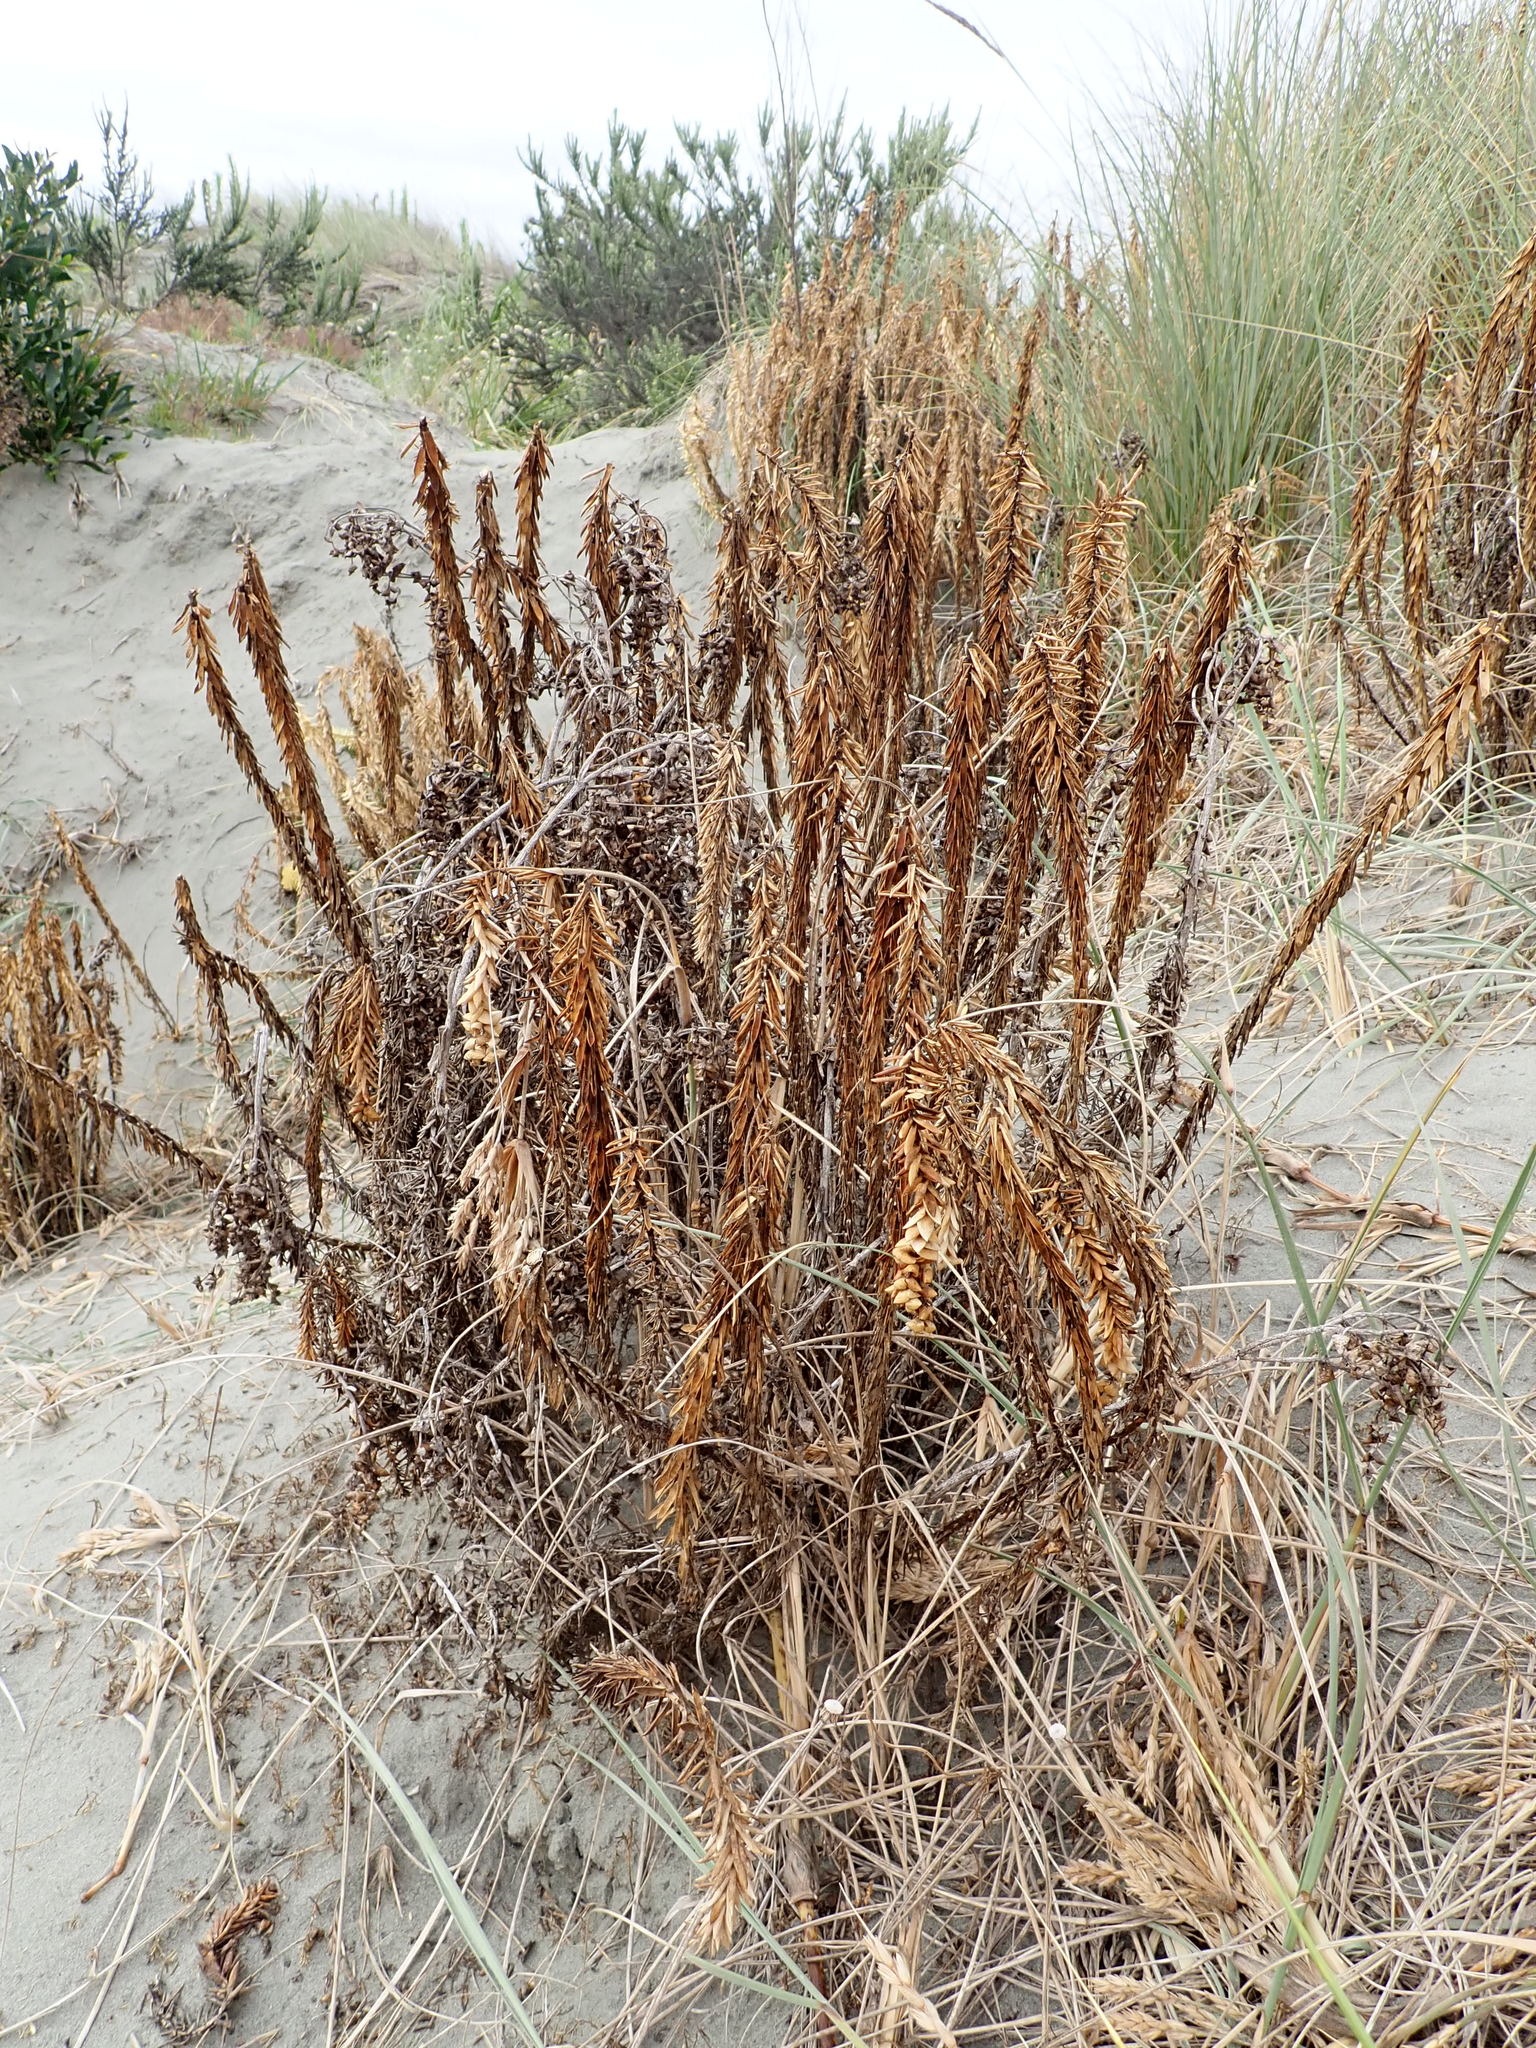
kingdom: Plantae
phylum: Tracheophyta
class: Magnoliopsida
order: Malpighiales
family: Euphorbiaceae
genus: Euphorbia
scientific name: Euphorbia paralias
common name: Sea spurge
